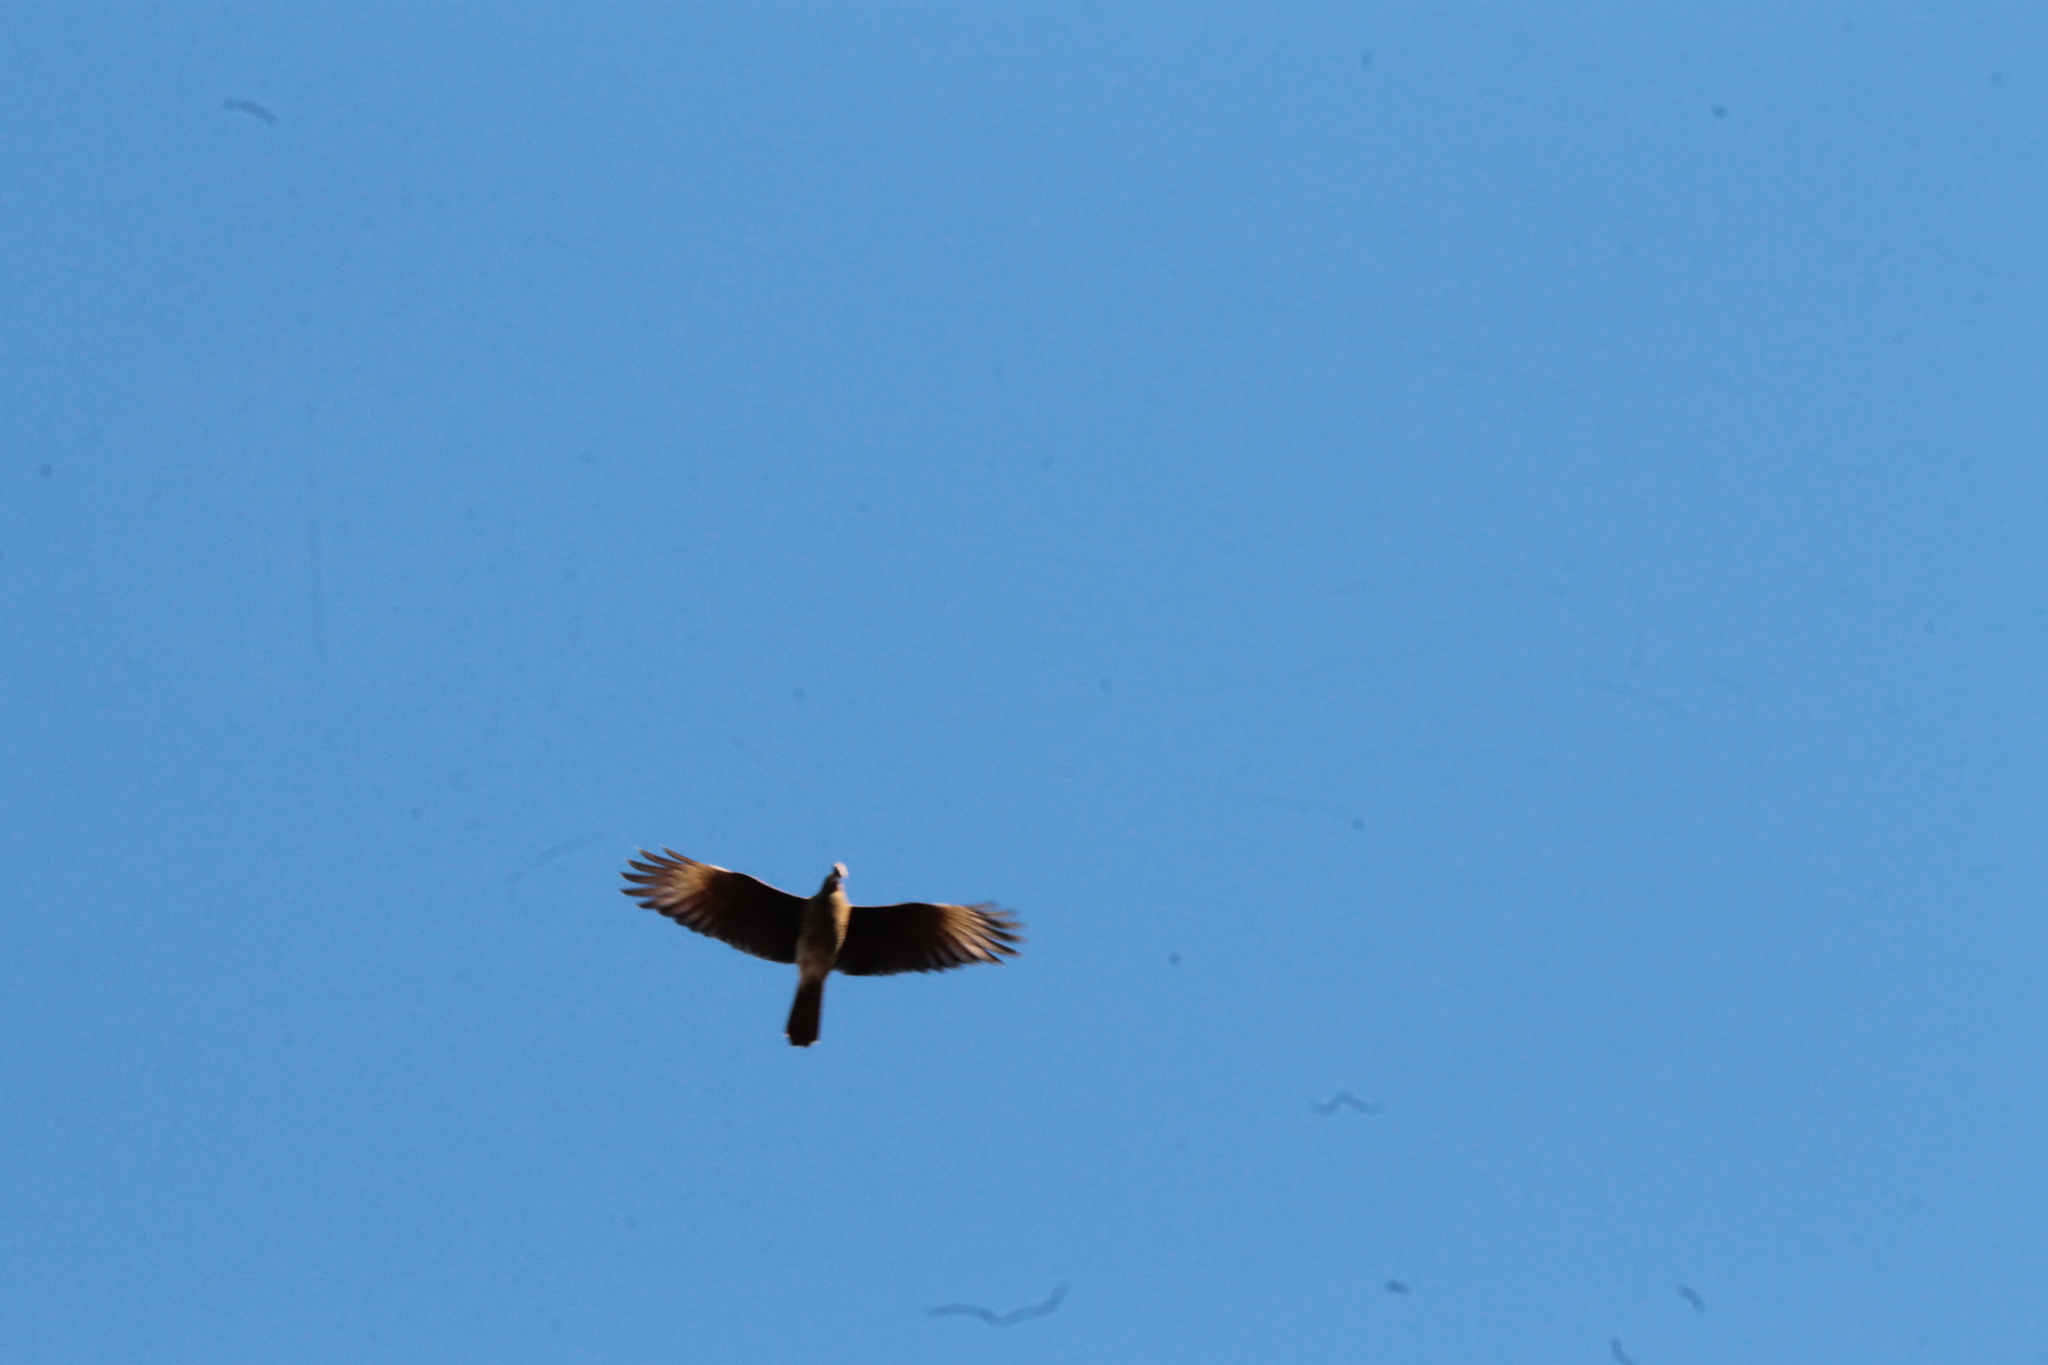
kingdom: Animalia
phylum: Chordata
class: Aves
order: Falconiformes
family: Falconidae
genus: Daptrius
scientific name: Daptrius
